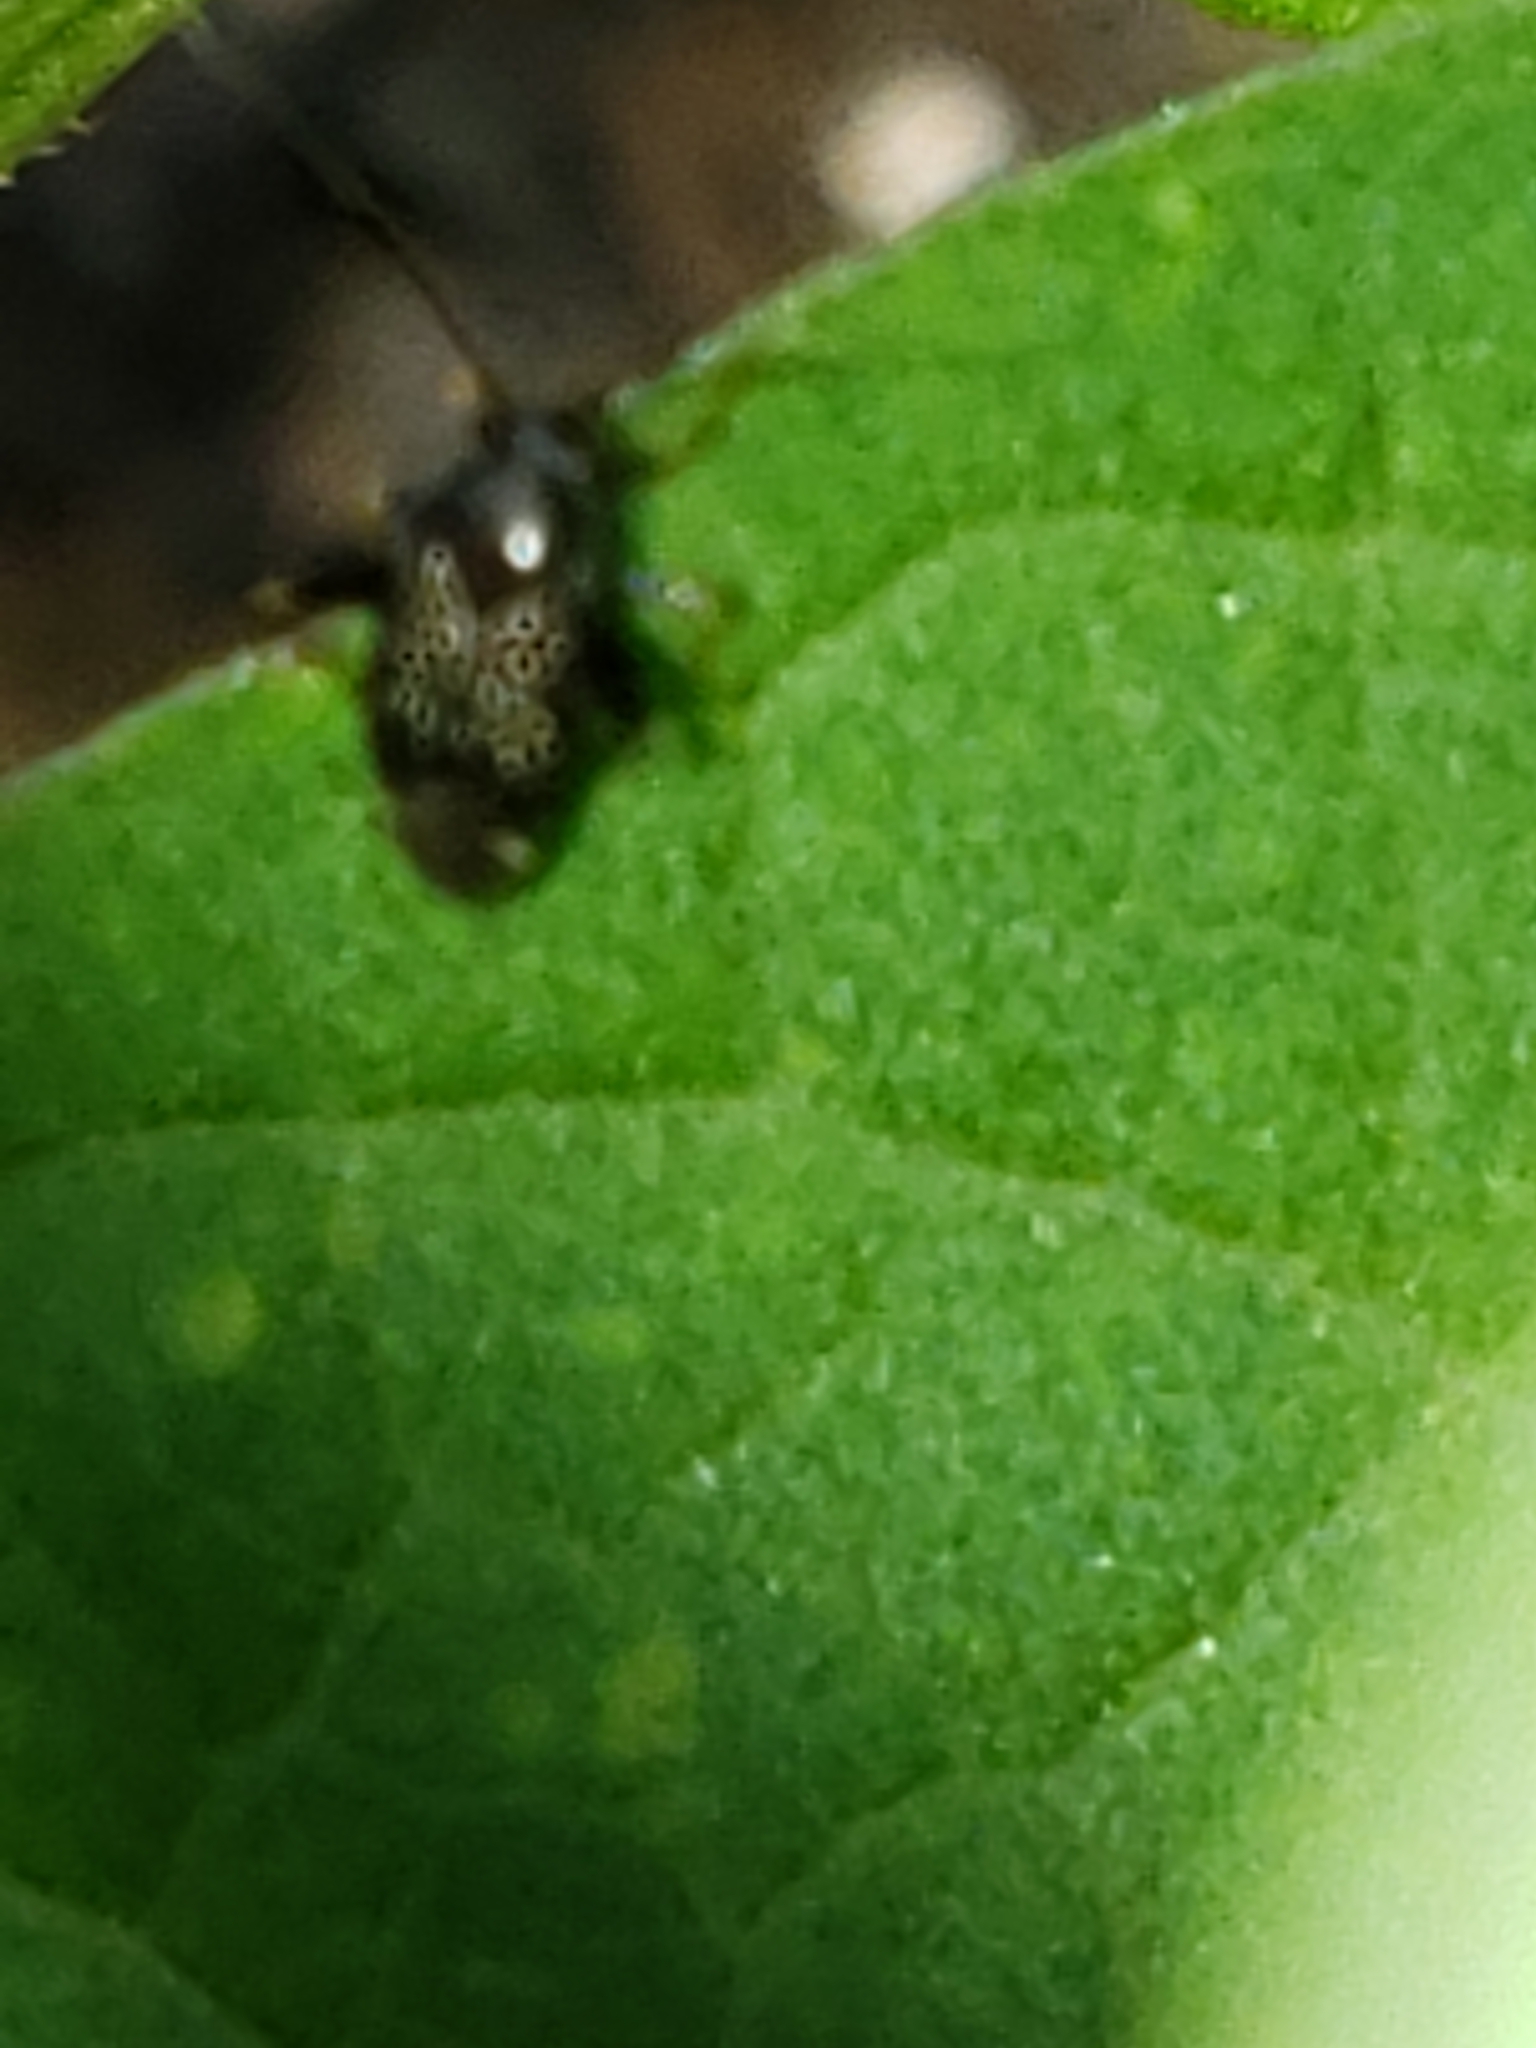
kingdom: Animalia
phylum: Arthropoda
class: Insecta
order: Hemiptera
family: Miridae
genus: Microtechnites
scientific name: Microtechnites bractatus
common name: Garden fleahopper
